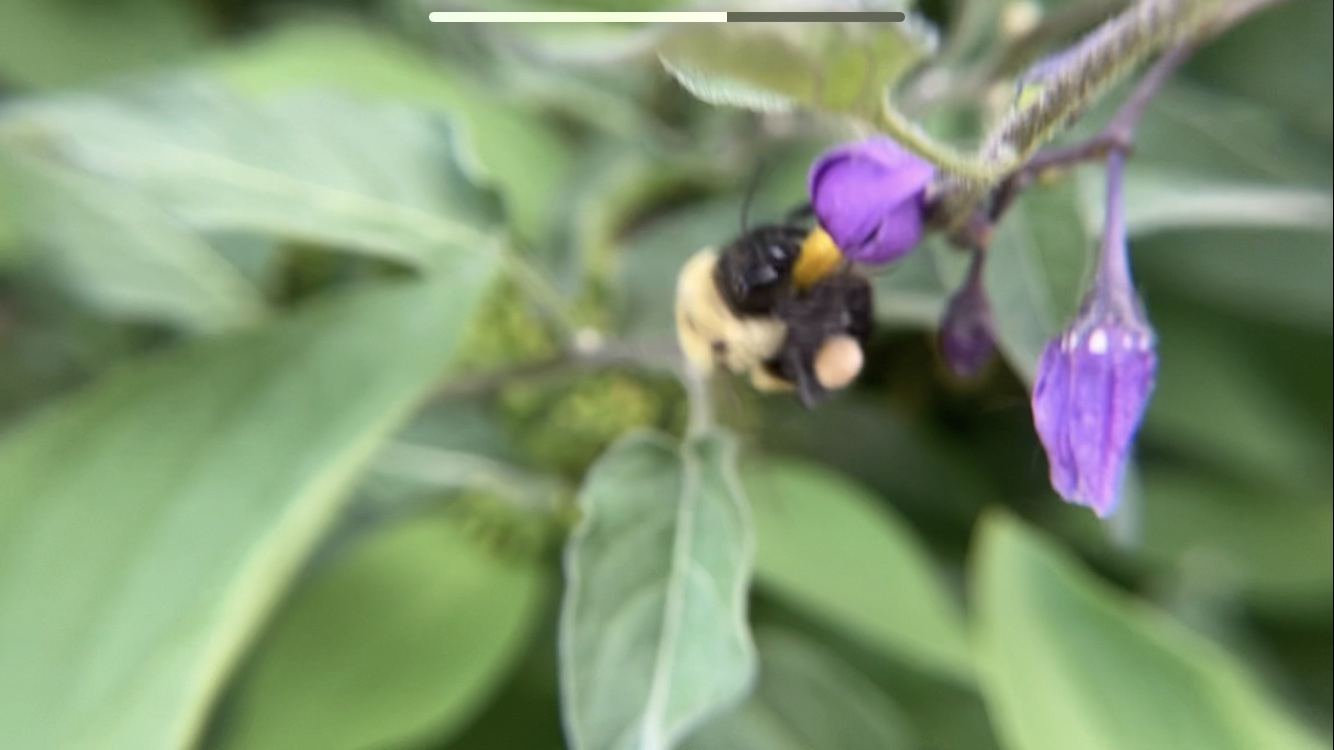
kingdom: Animalia
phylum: Arthropoda
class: Insecta
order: Hymenoptera
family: Apidae
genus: Bombus
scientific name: Bombus griseocollis
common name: Brown-belted bumble bee
